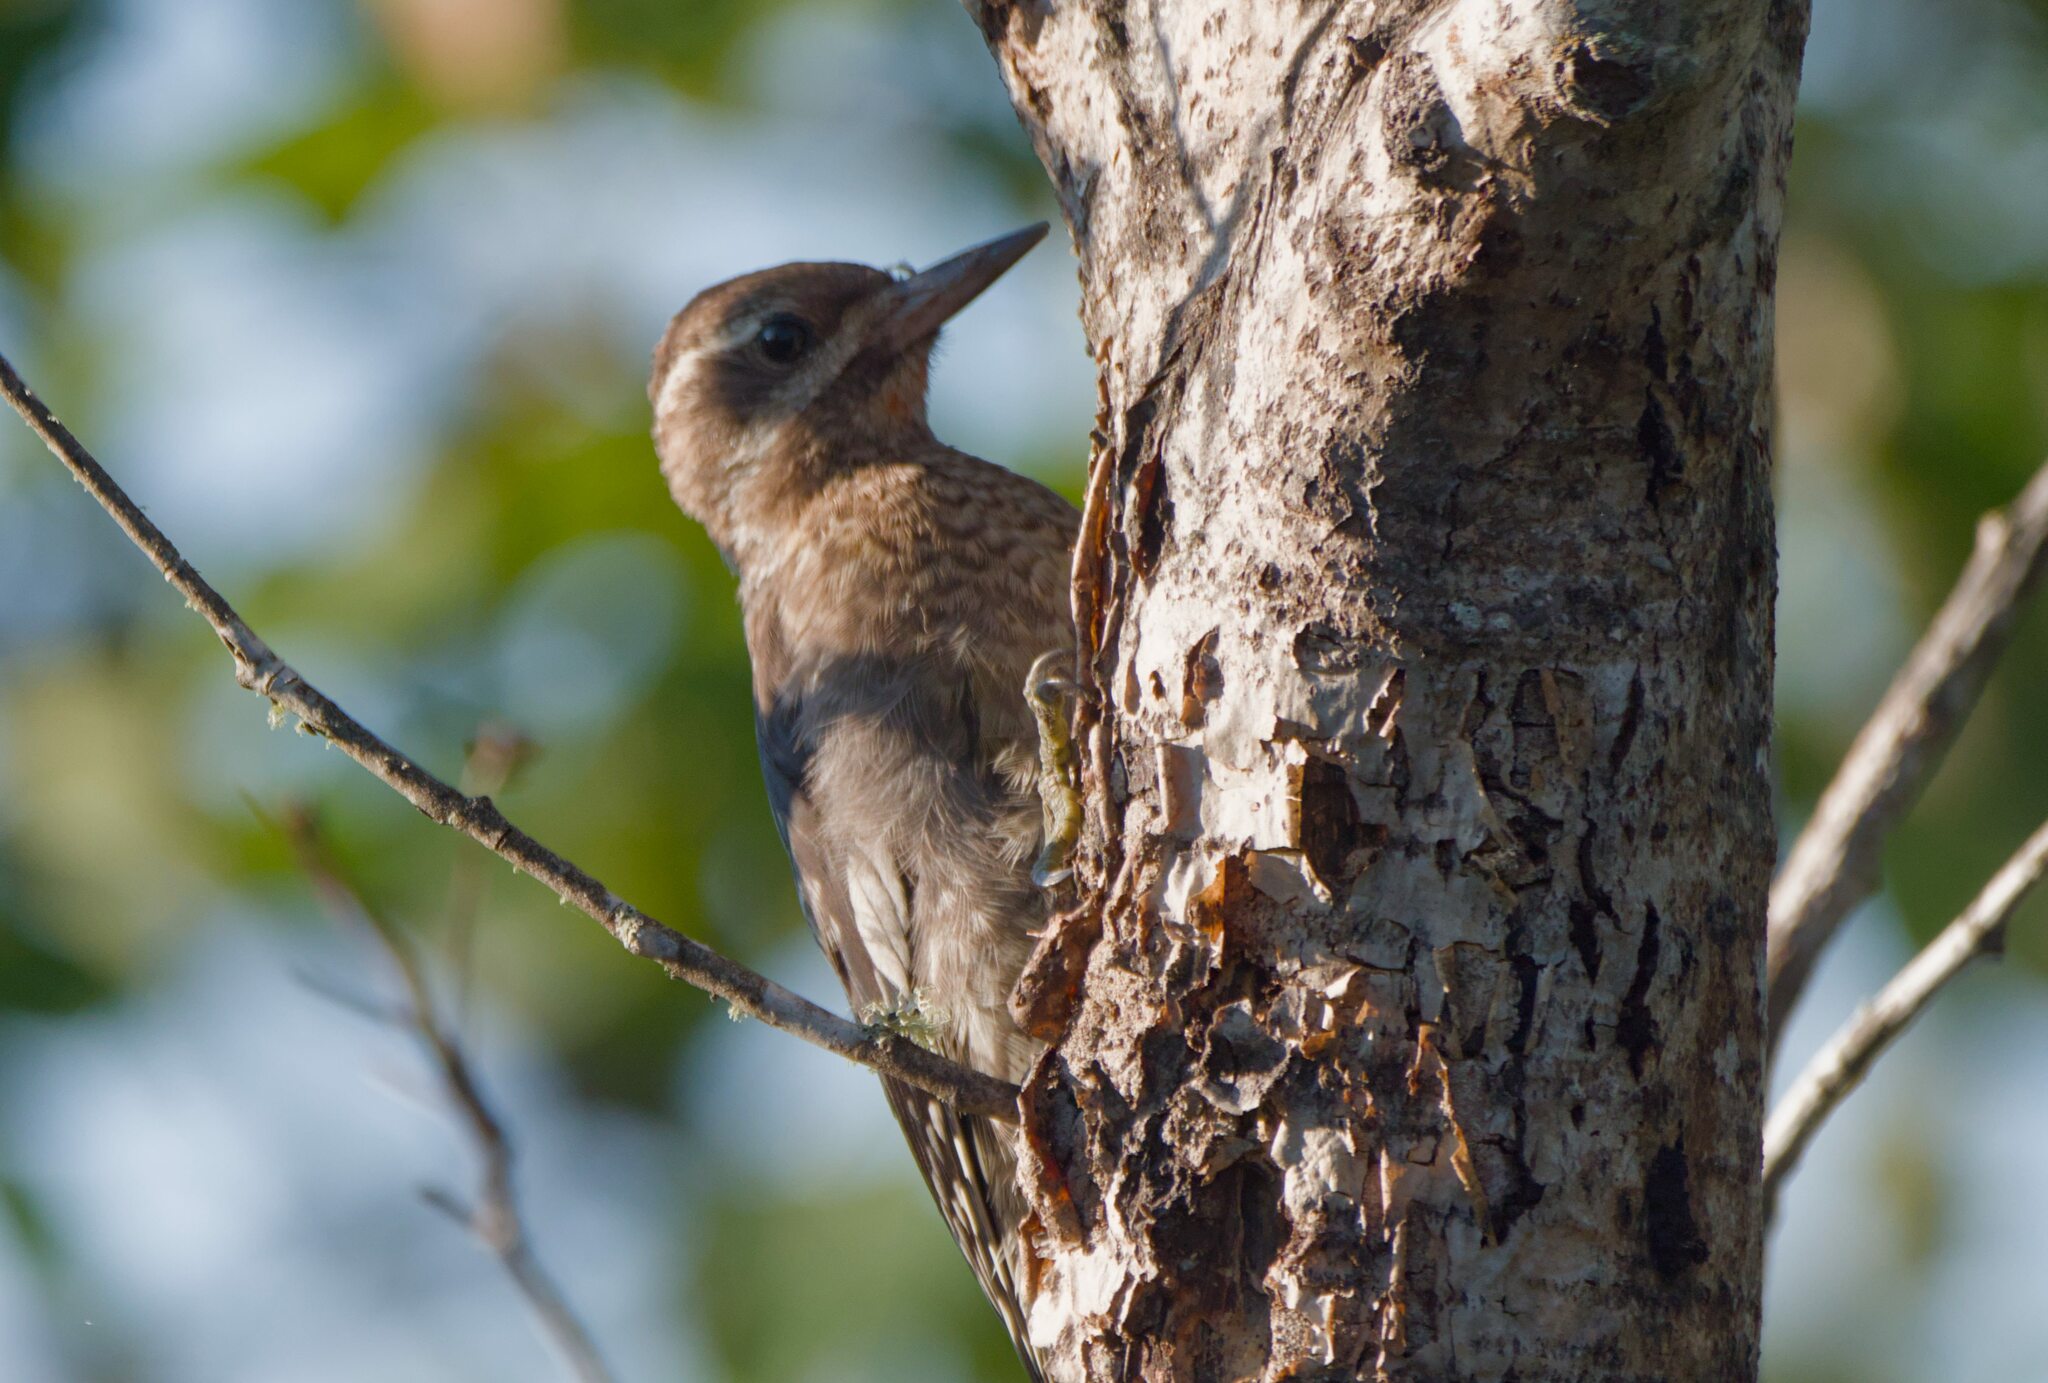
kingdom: Animalia
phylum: Chordata
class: Aves
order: Piciformes
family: Picidae
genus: Sphyrapicus
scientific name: Sphyrapicus varius
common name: Yellow-bellied sapsucker
